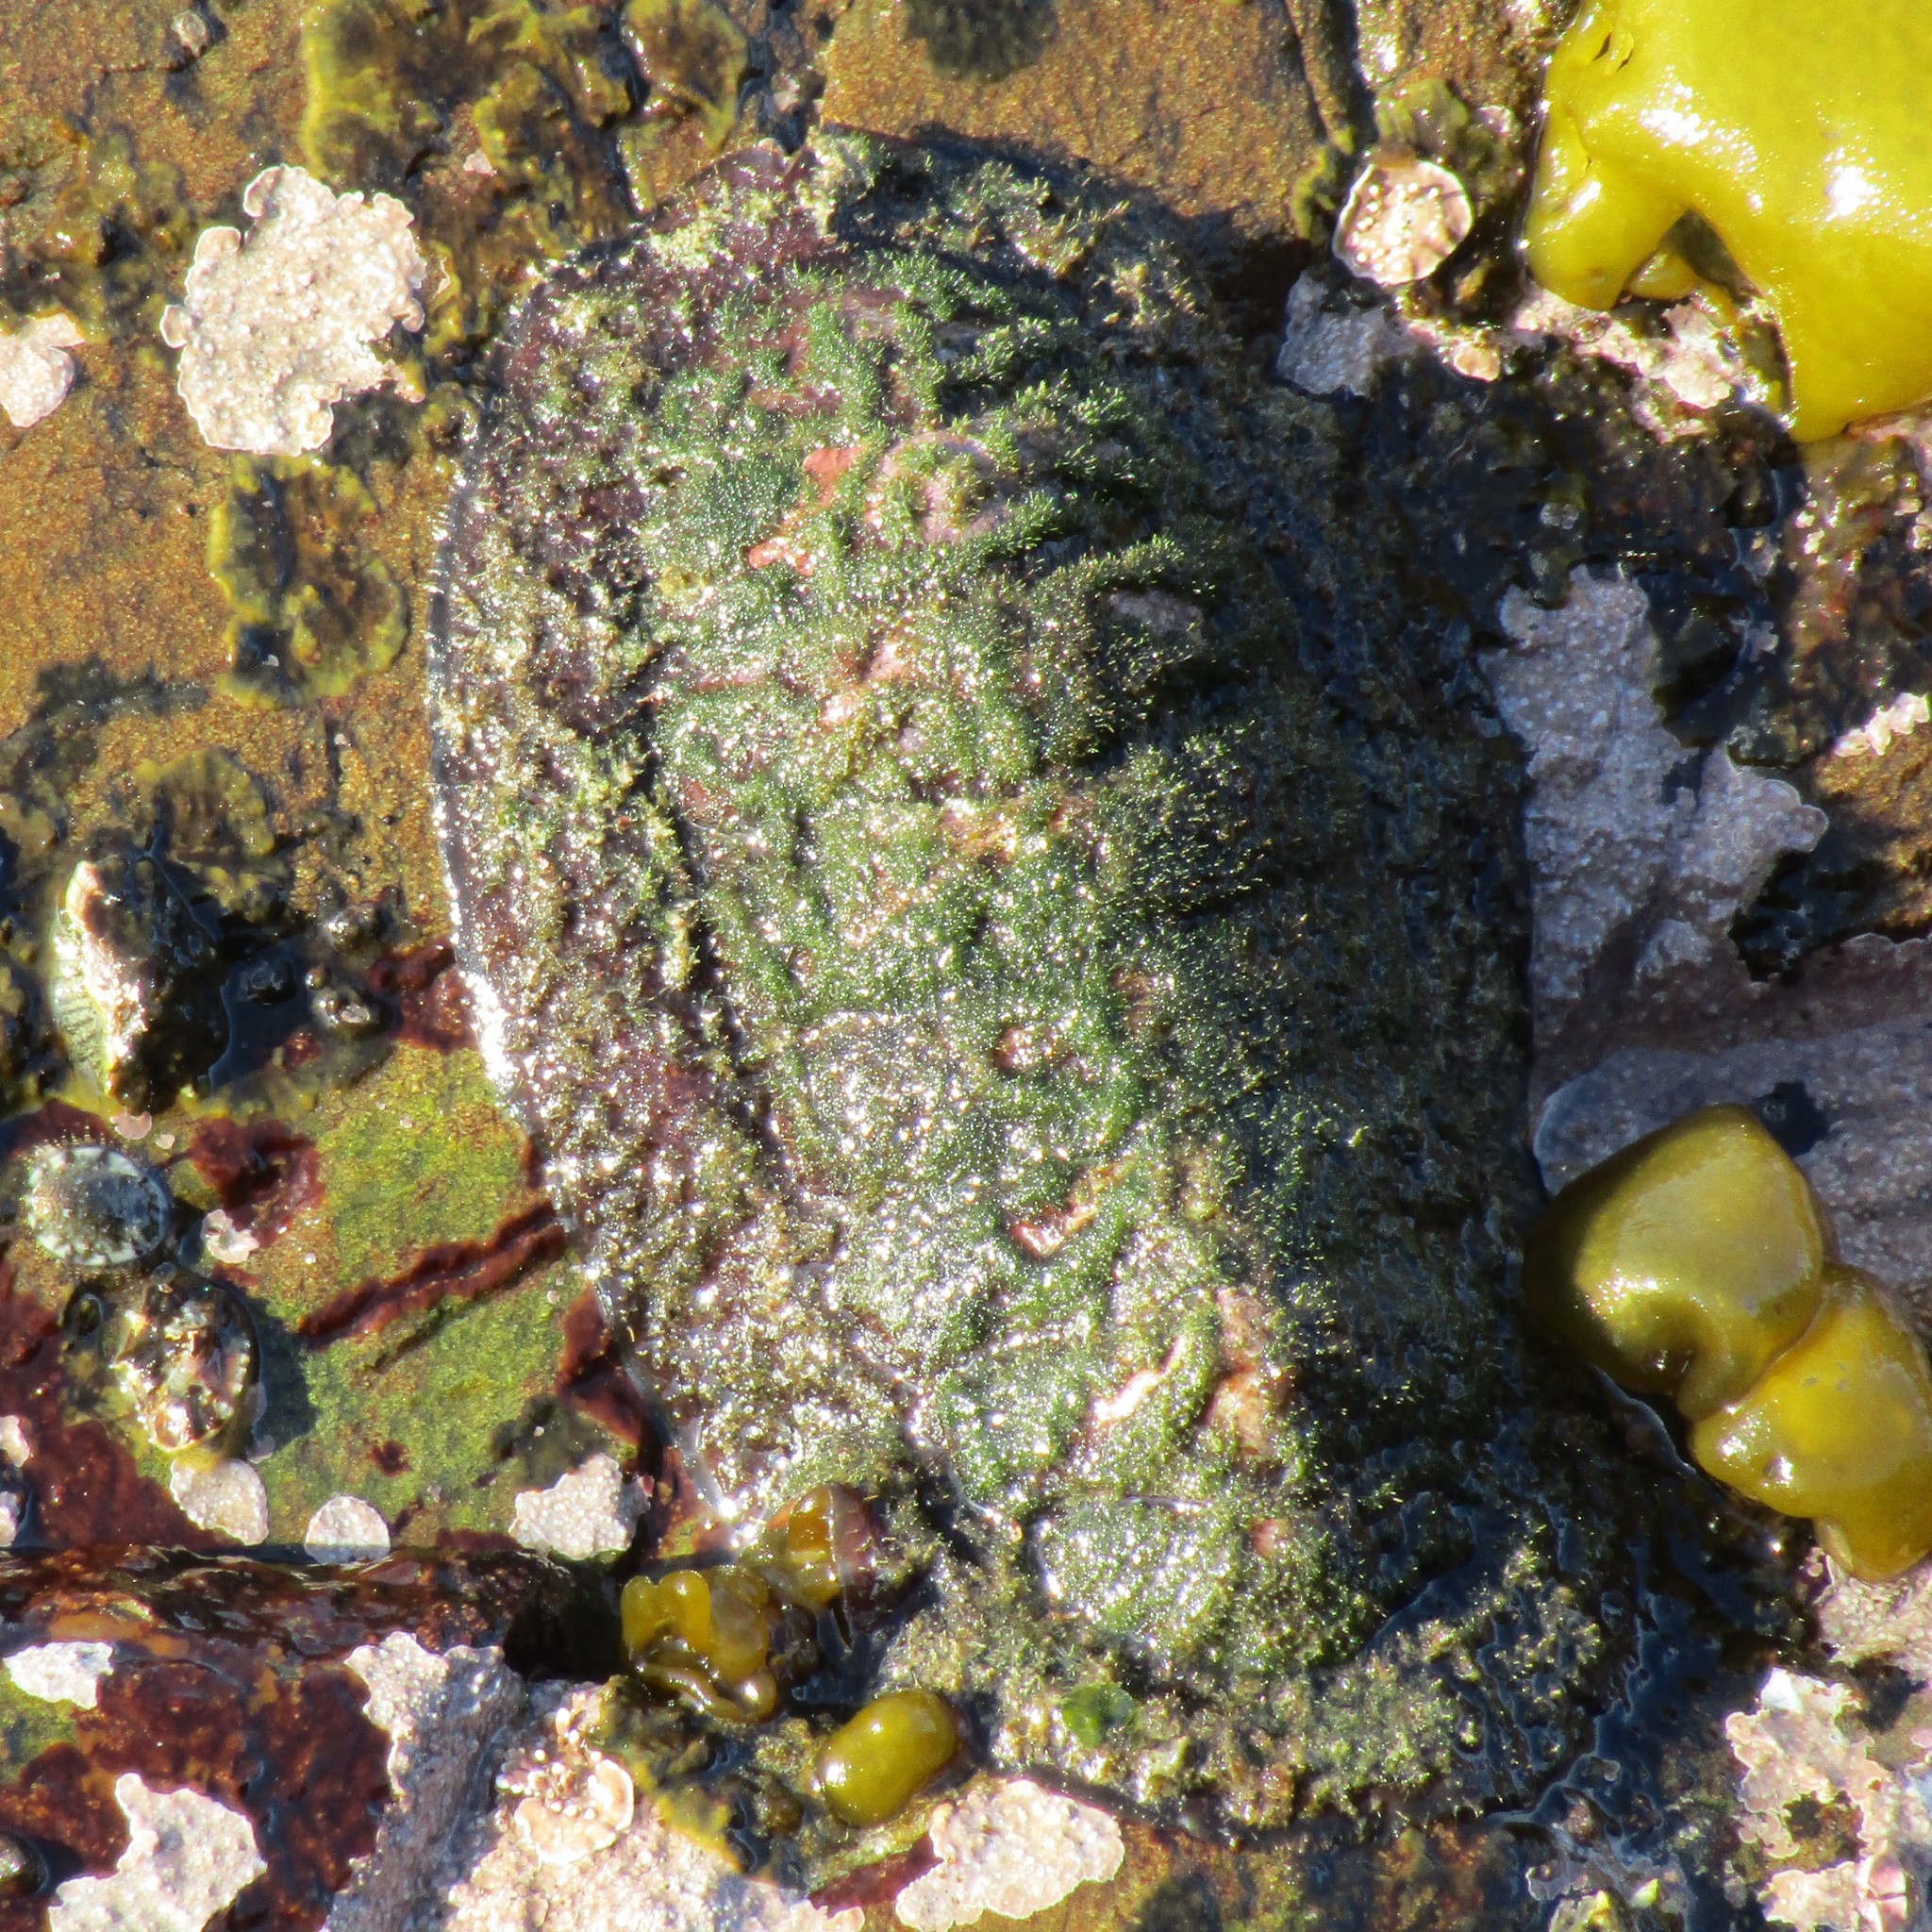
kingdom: Animalia
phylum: Mollusca
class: Polyplacophora
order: Callochitonida
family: Callochitonidae
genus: Eudoxochiton
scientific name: Eudoxochiton nobilis
